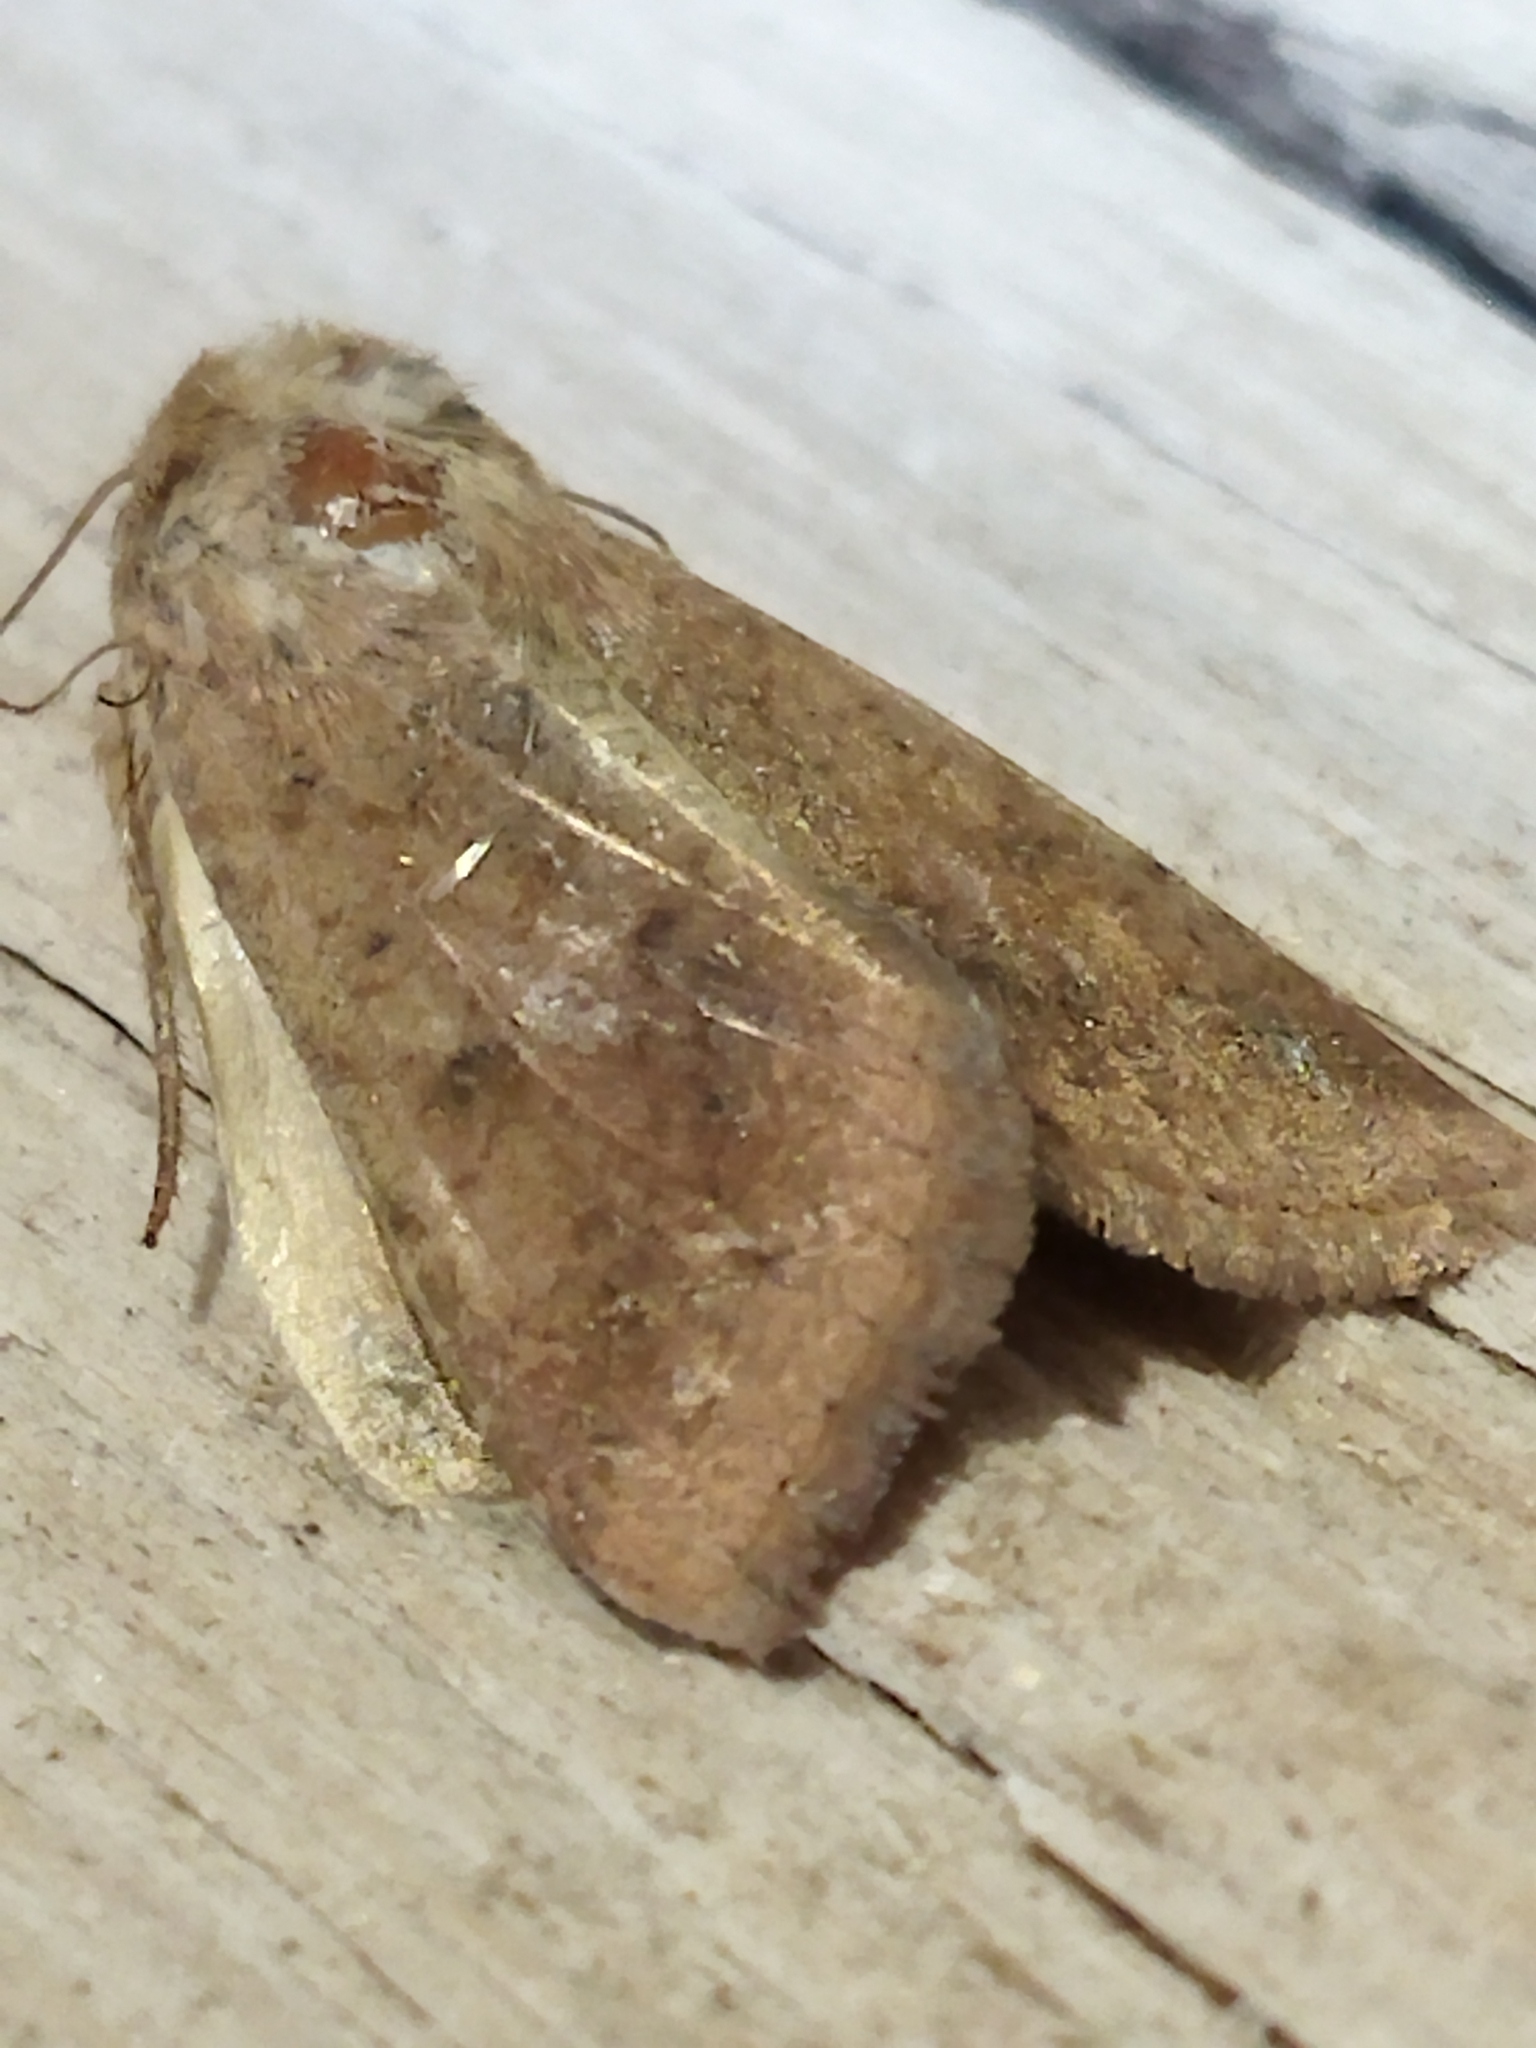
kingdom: Animalia
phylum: Arthropoda
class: Insecta
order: Lepidoptera
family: Noctuidae
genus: Helicoverpa
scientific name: Helicoverpa armigera
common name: Cotton bollworm
